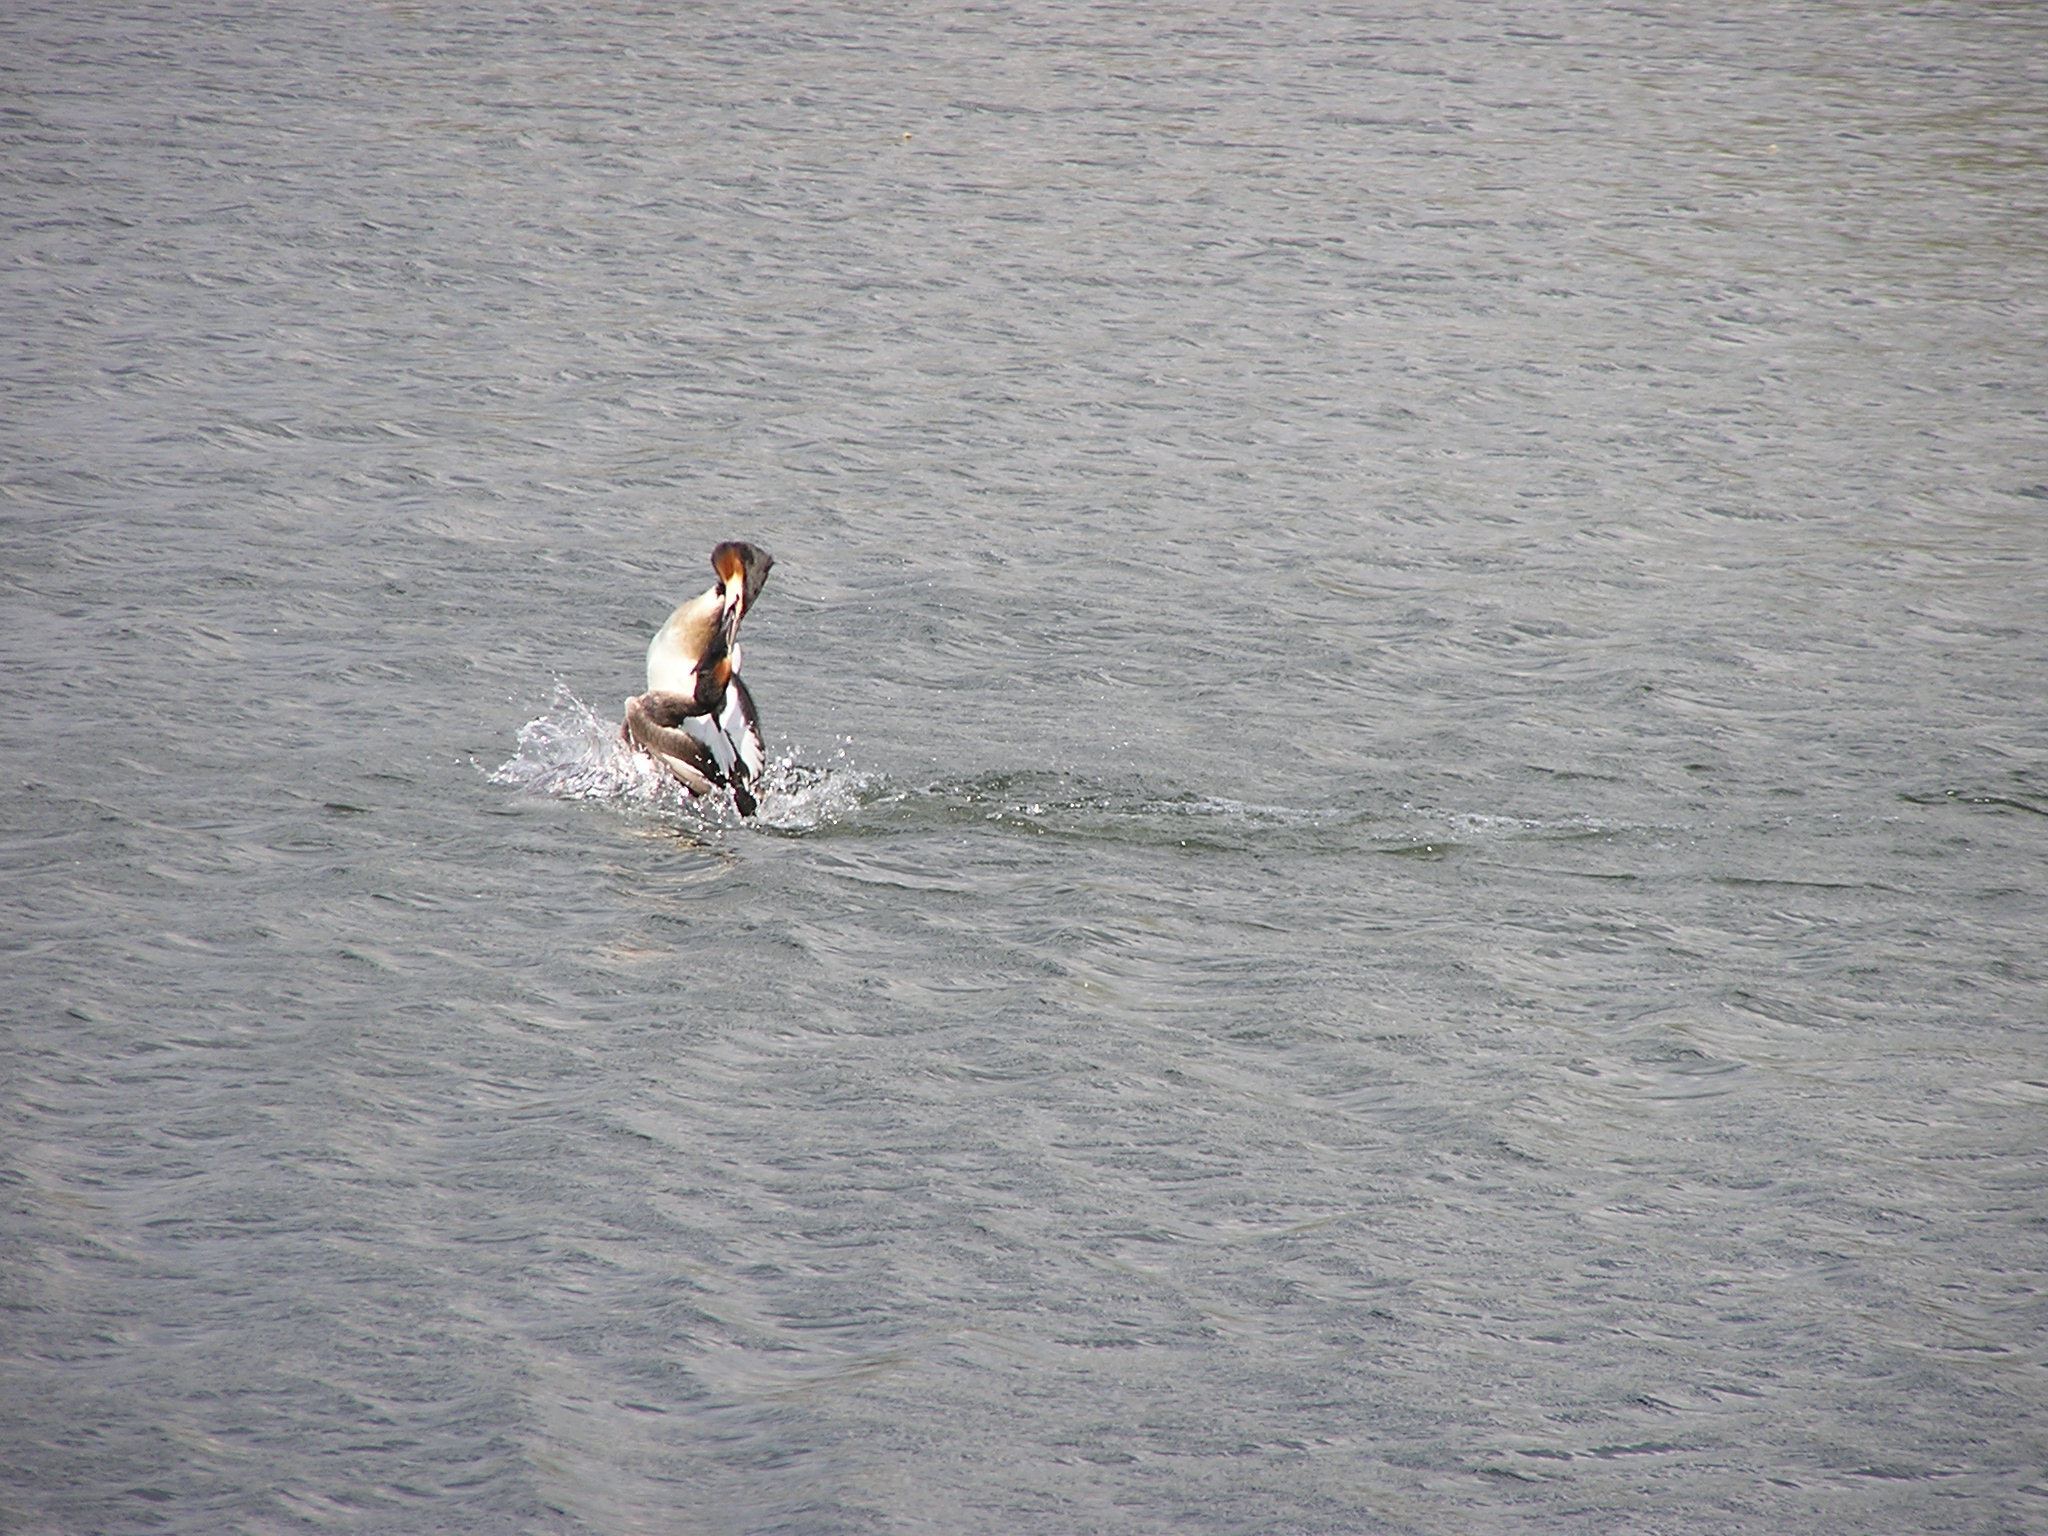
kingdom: Animalia
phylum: Chordata
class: Aves
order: Podicipediformes
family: Podicipedidae
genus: Podiceps
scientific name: Podiceps cristatus
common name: Great crested grebe
